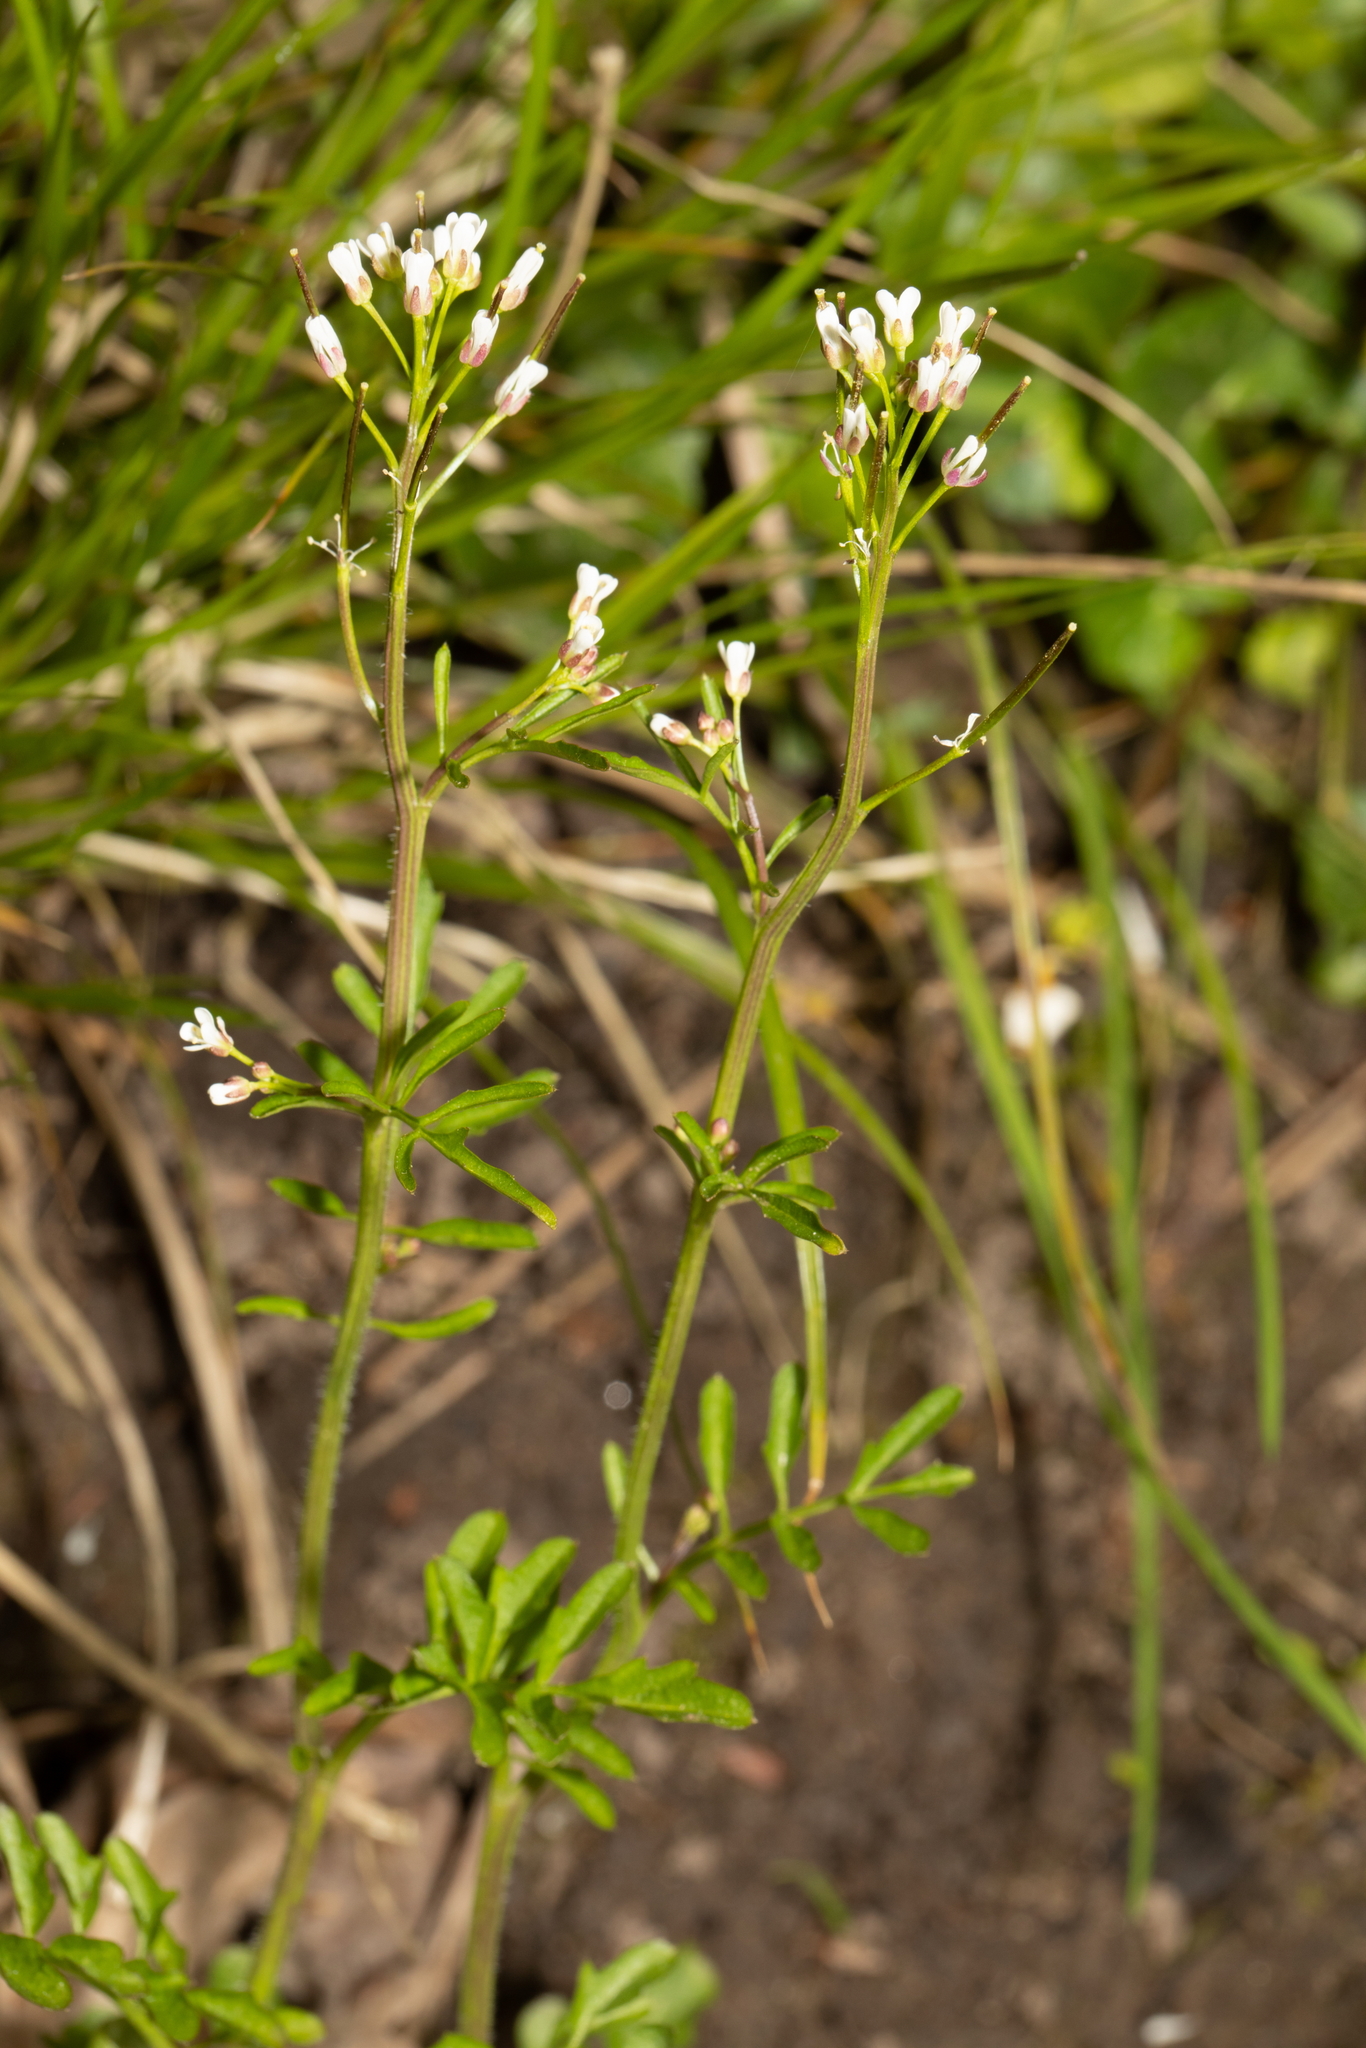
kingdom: Plantae
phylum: Tracheophyta
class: Magnoliopsida
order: Brassicales
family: Brassicaceae
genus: Cardamine
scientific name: Cardamine flexuosa
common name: Woodland bittercress
